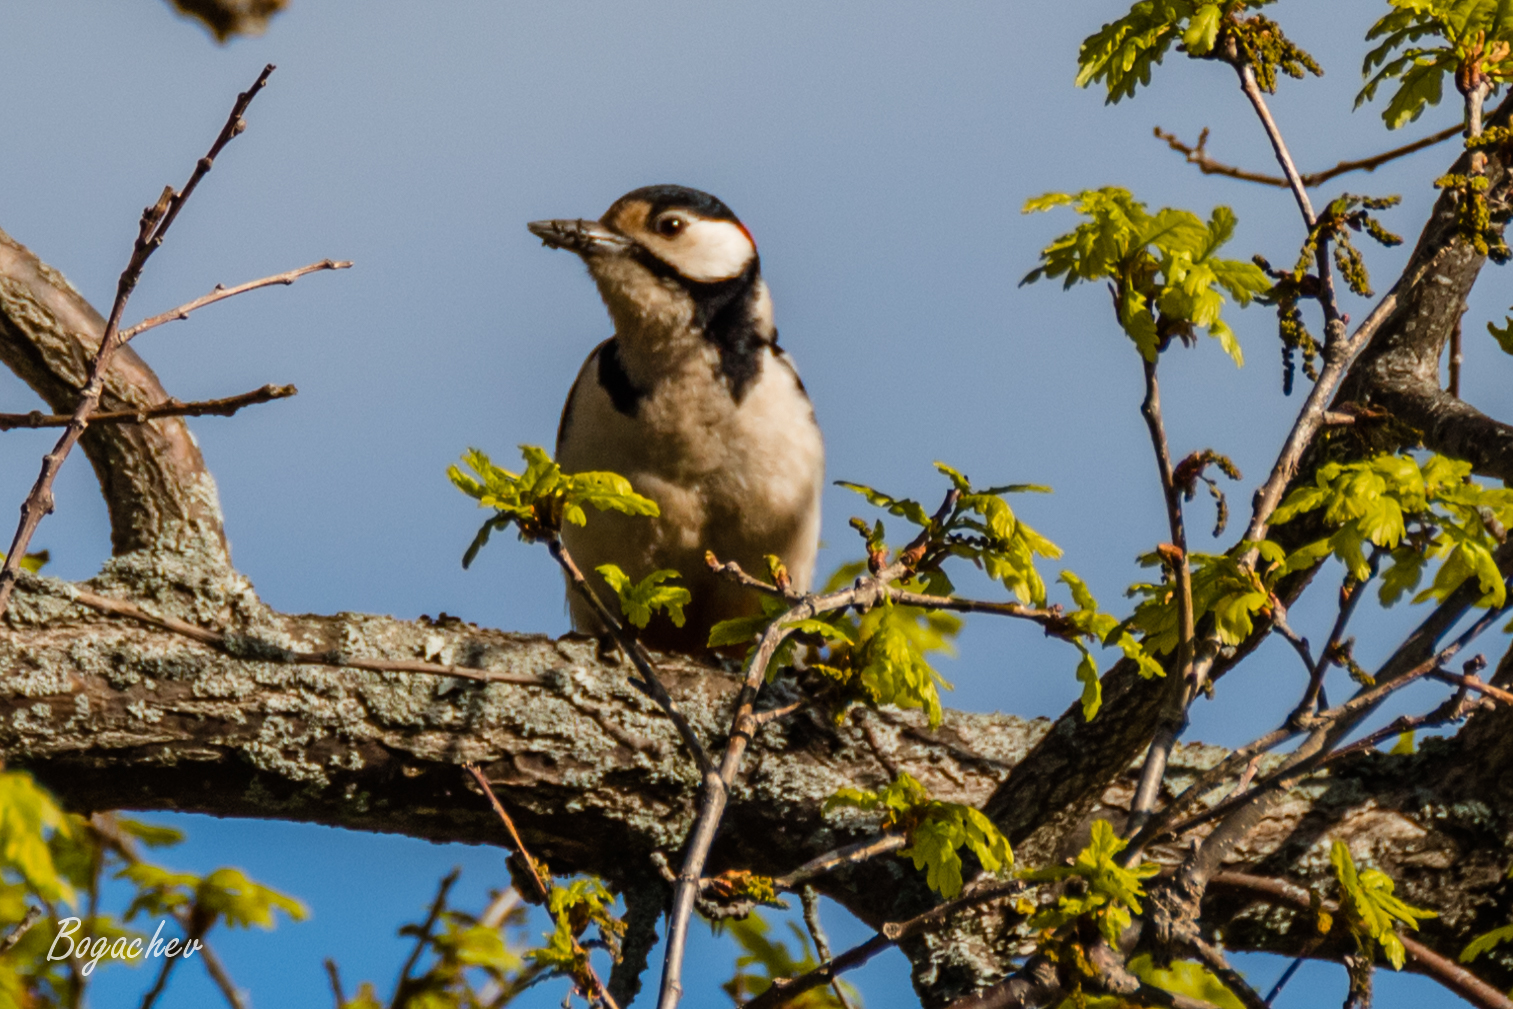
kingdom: Animalia
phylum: Chordata
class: Aves
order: Piciformes
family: Picidae
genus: Dendrocopos
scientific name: Dendrocopos major
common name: Great spotted woodpecker
